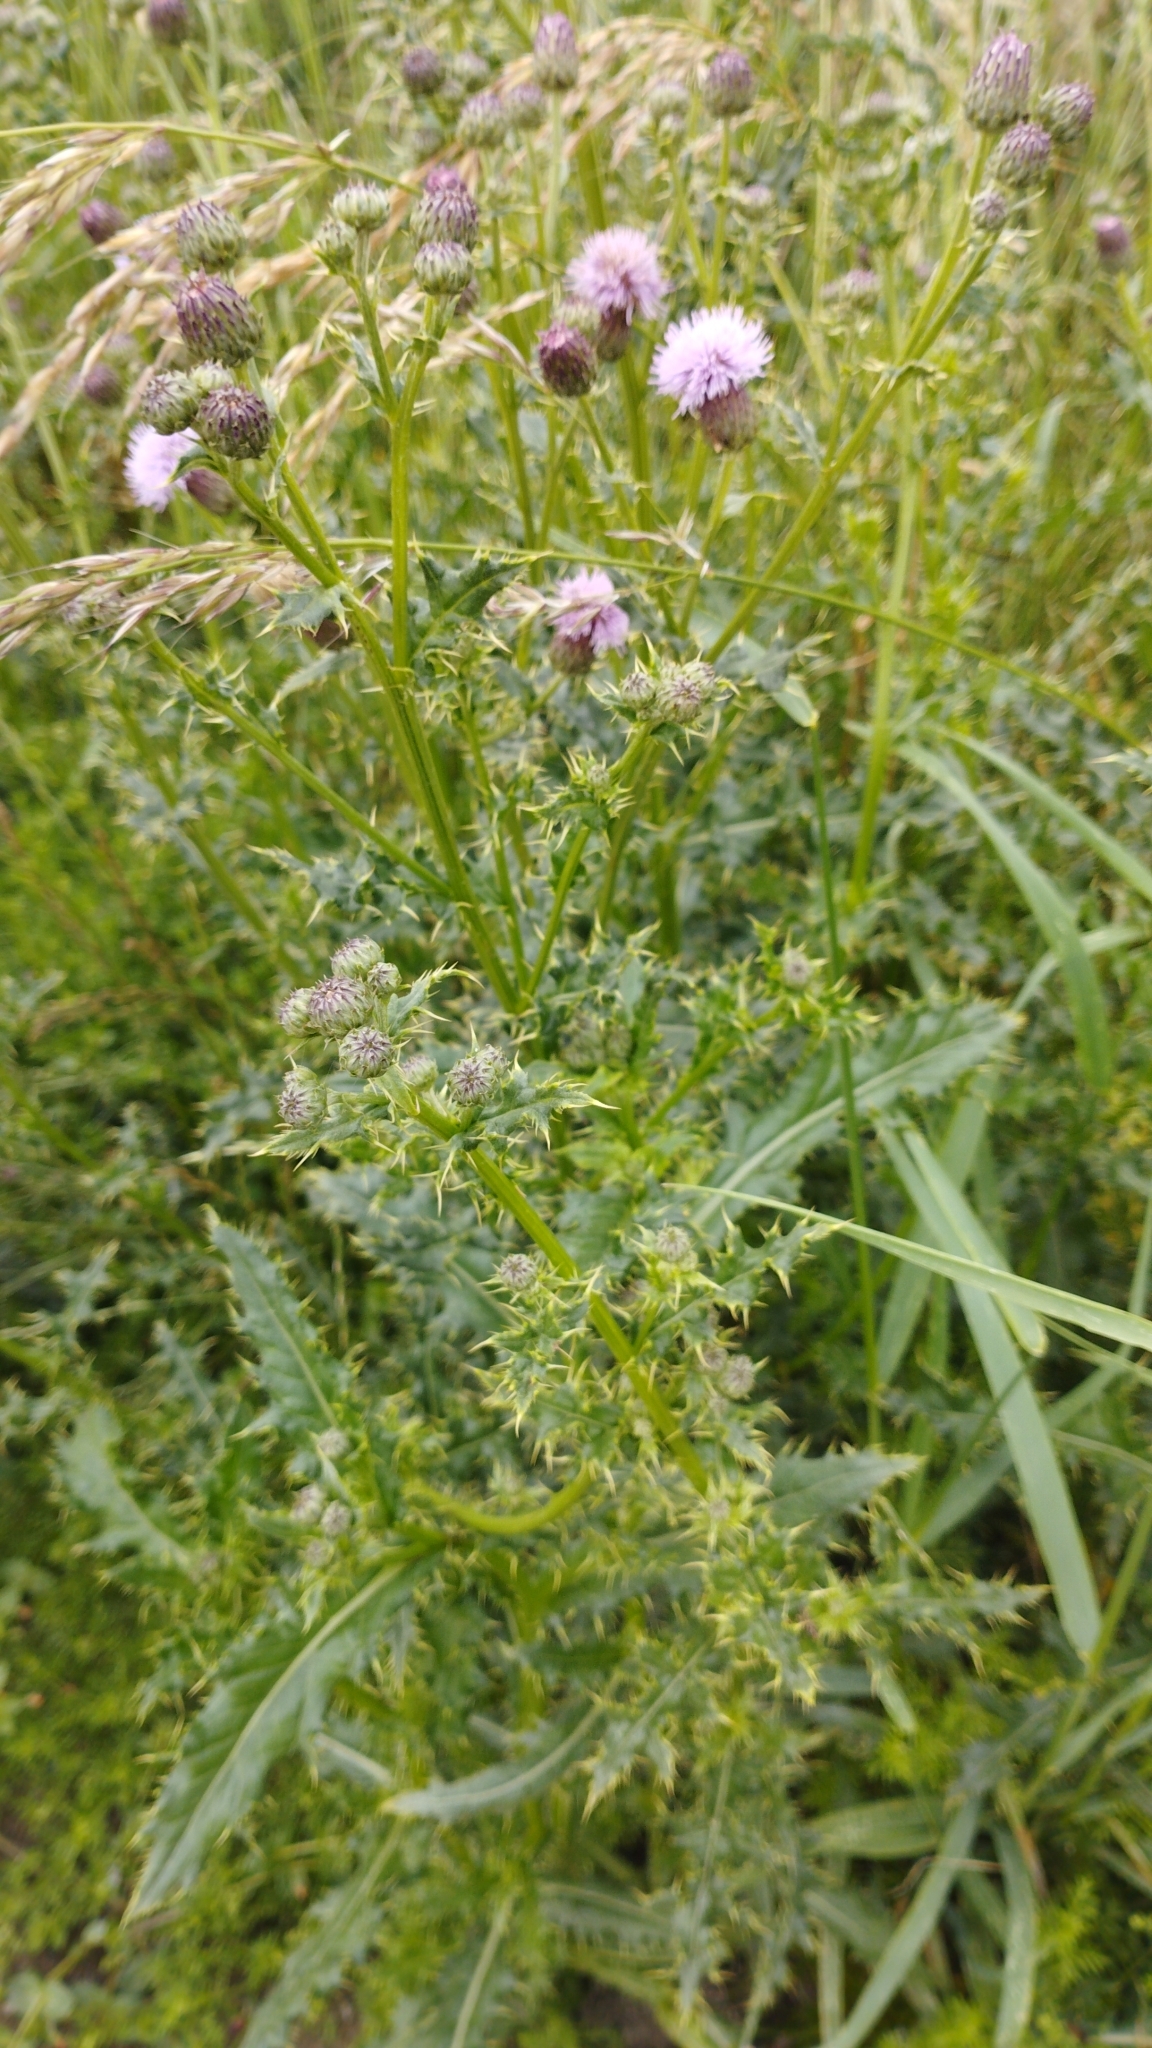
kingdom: Plantae
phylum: Tracheophyta
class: Magnoliopsida
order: Asterales
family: Asteraceae
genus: Cirsium
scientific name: Cirsium arvense
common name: Creeping thistle
